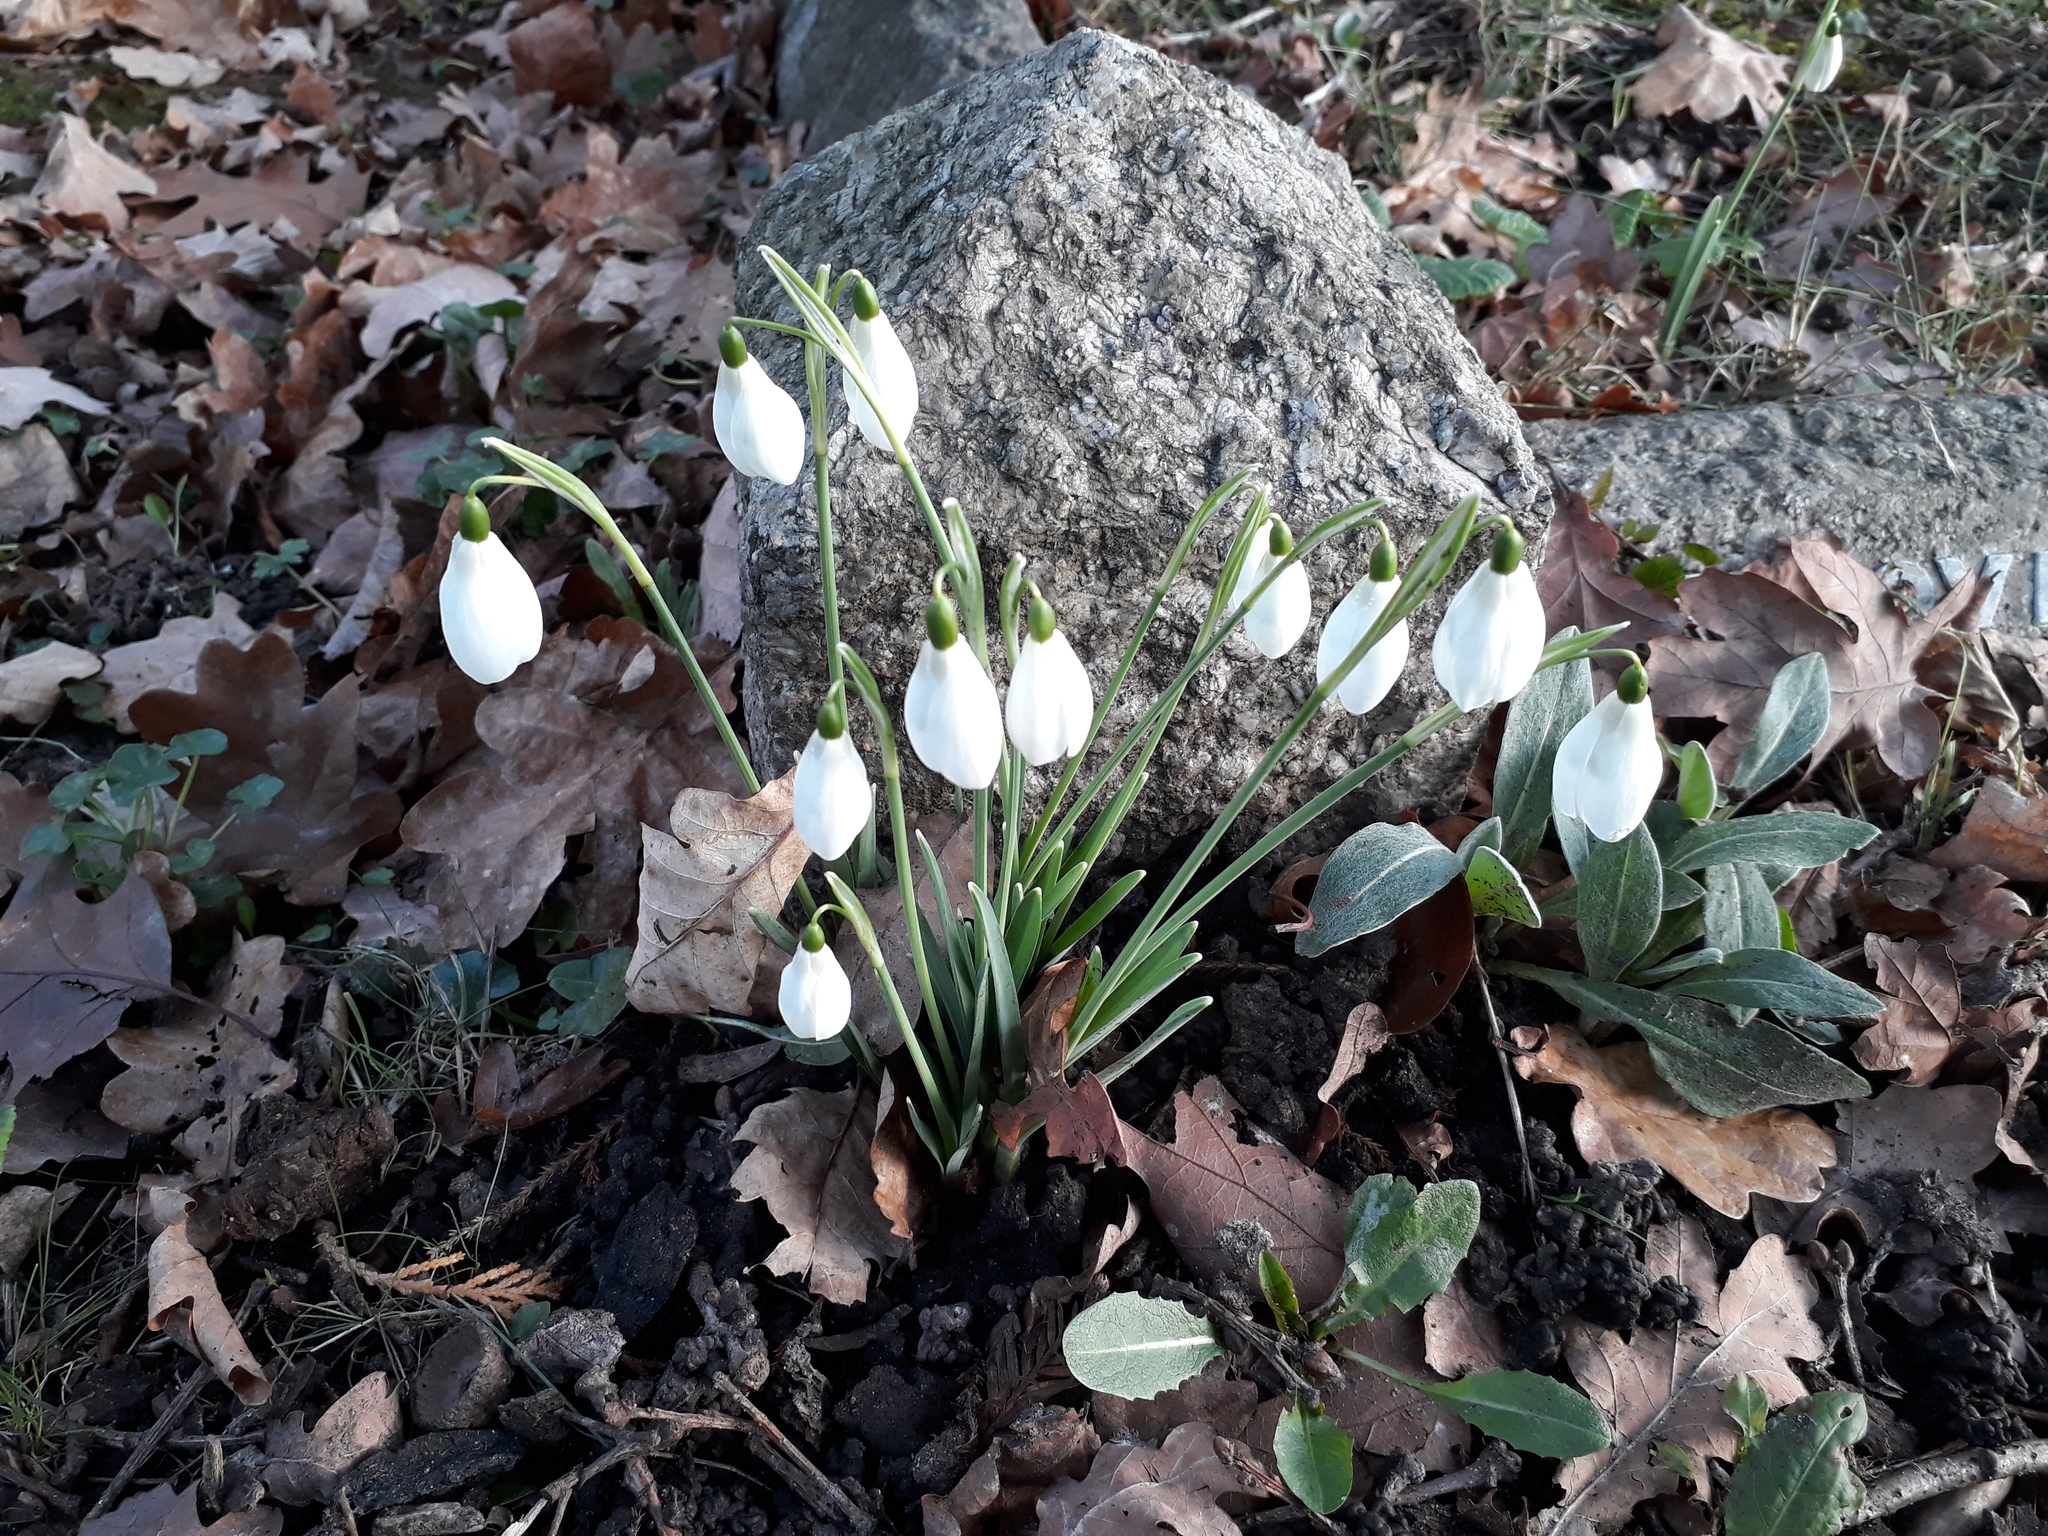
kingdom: Plantae
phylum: Tracheophyta
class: Liliopsida
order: Asparagales
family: Amaryllidaceae
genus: Galanthus
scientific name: Galanthus nivalis
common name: Snowdrop
